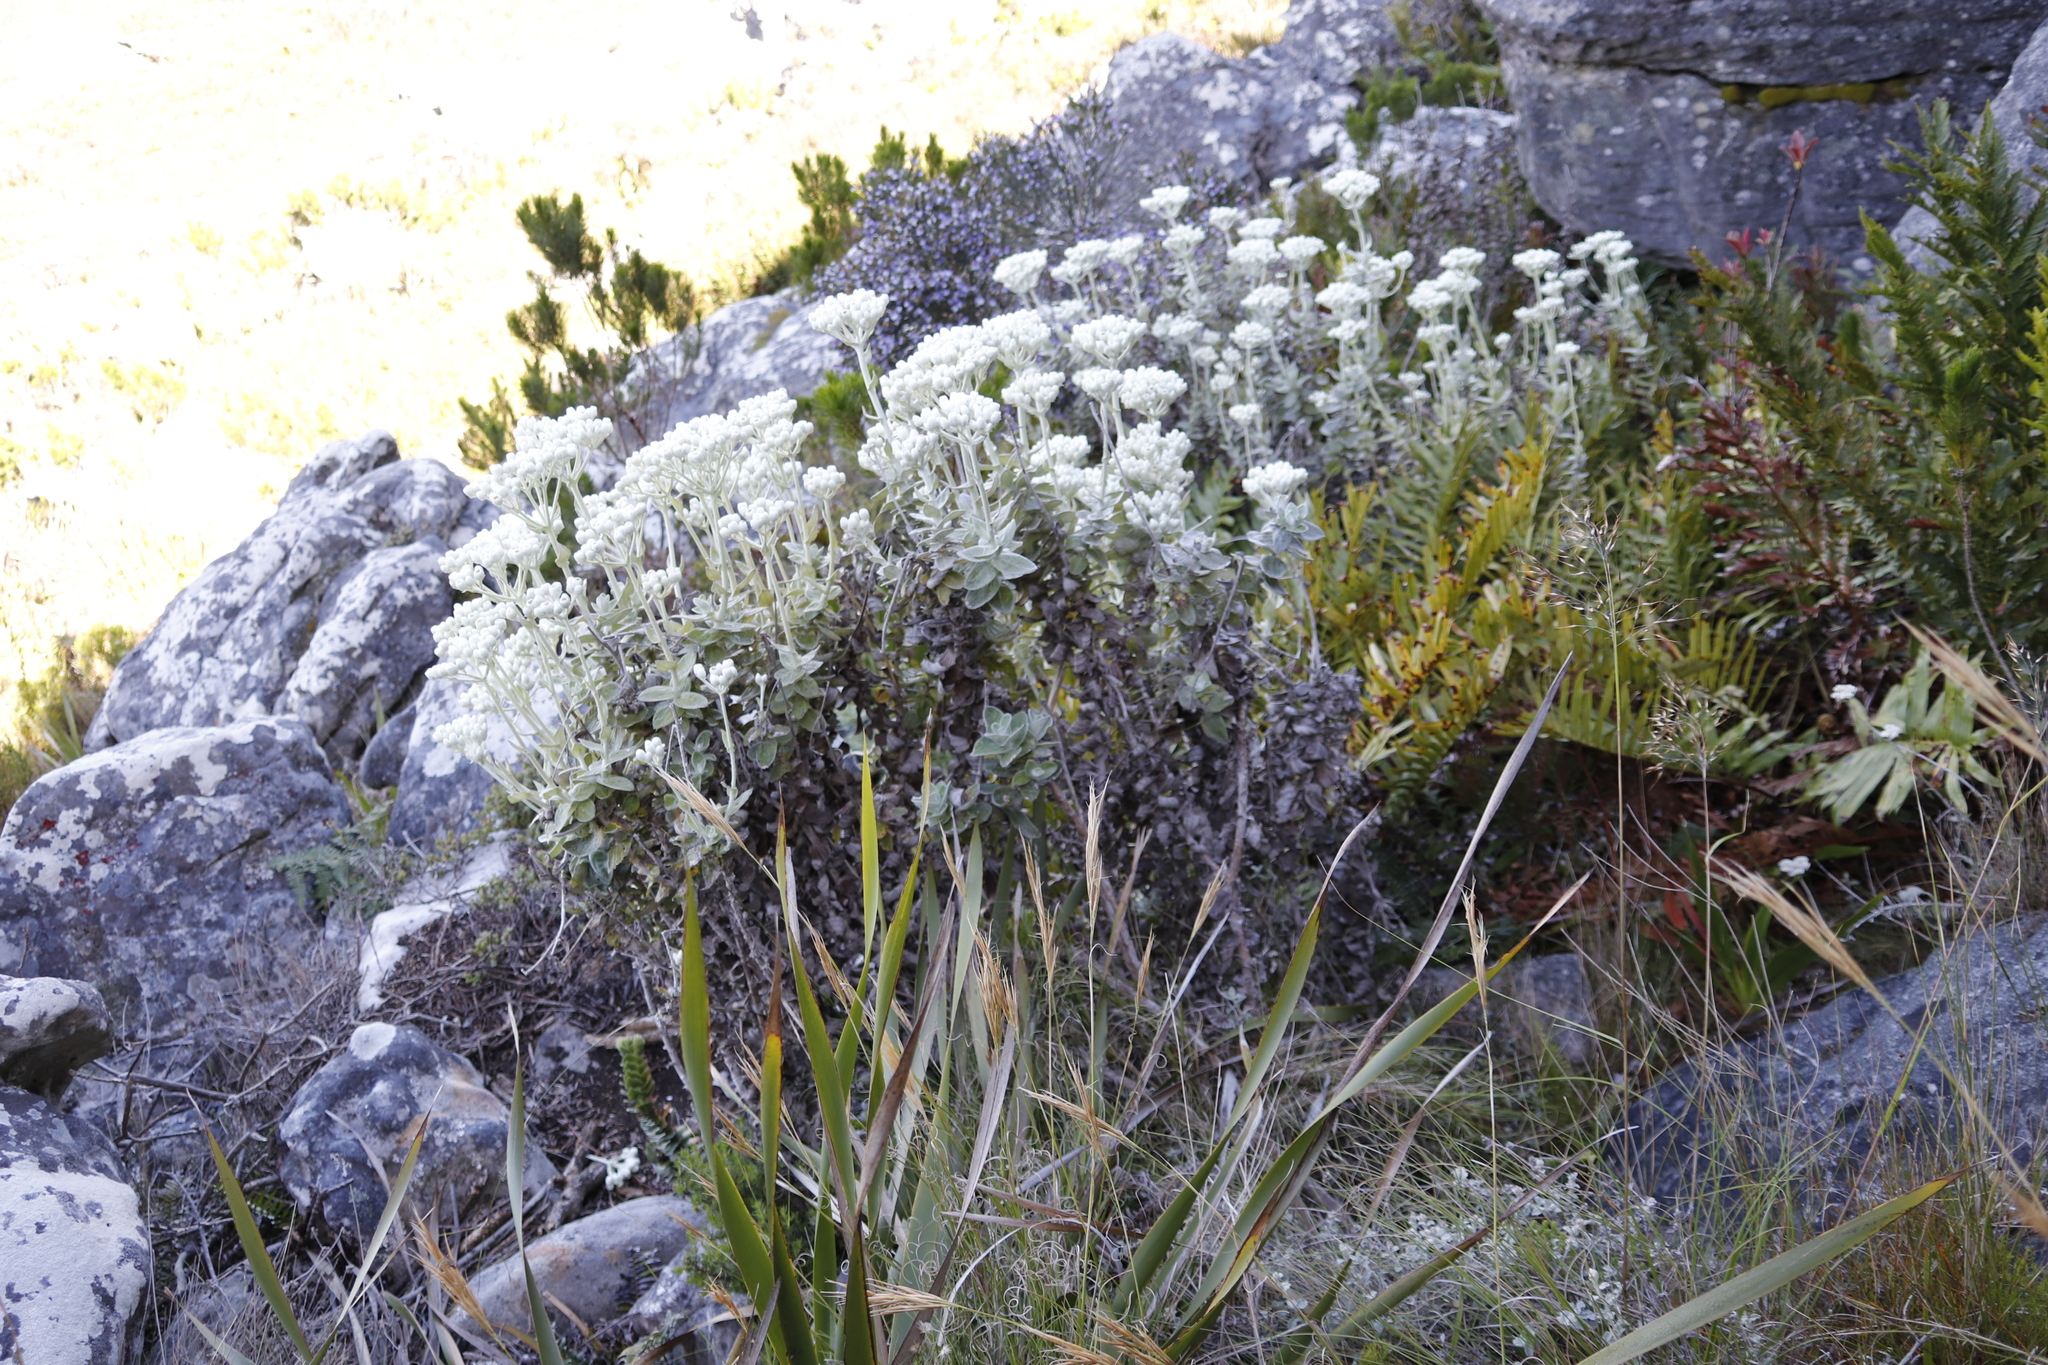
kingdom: Plantae
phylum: Tracheophyta
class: Magnoliopsida
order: Asterales
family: Asteraceae
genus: Helichrysum
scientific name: Helichrysum fruticans
